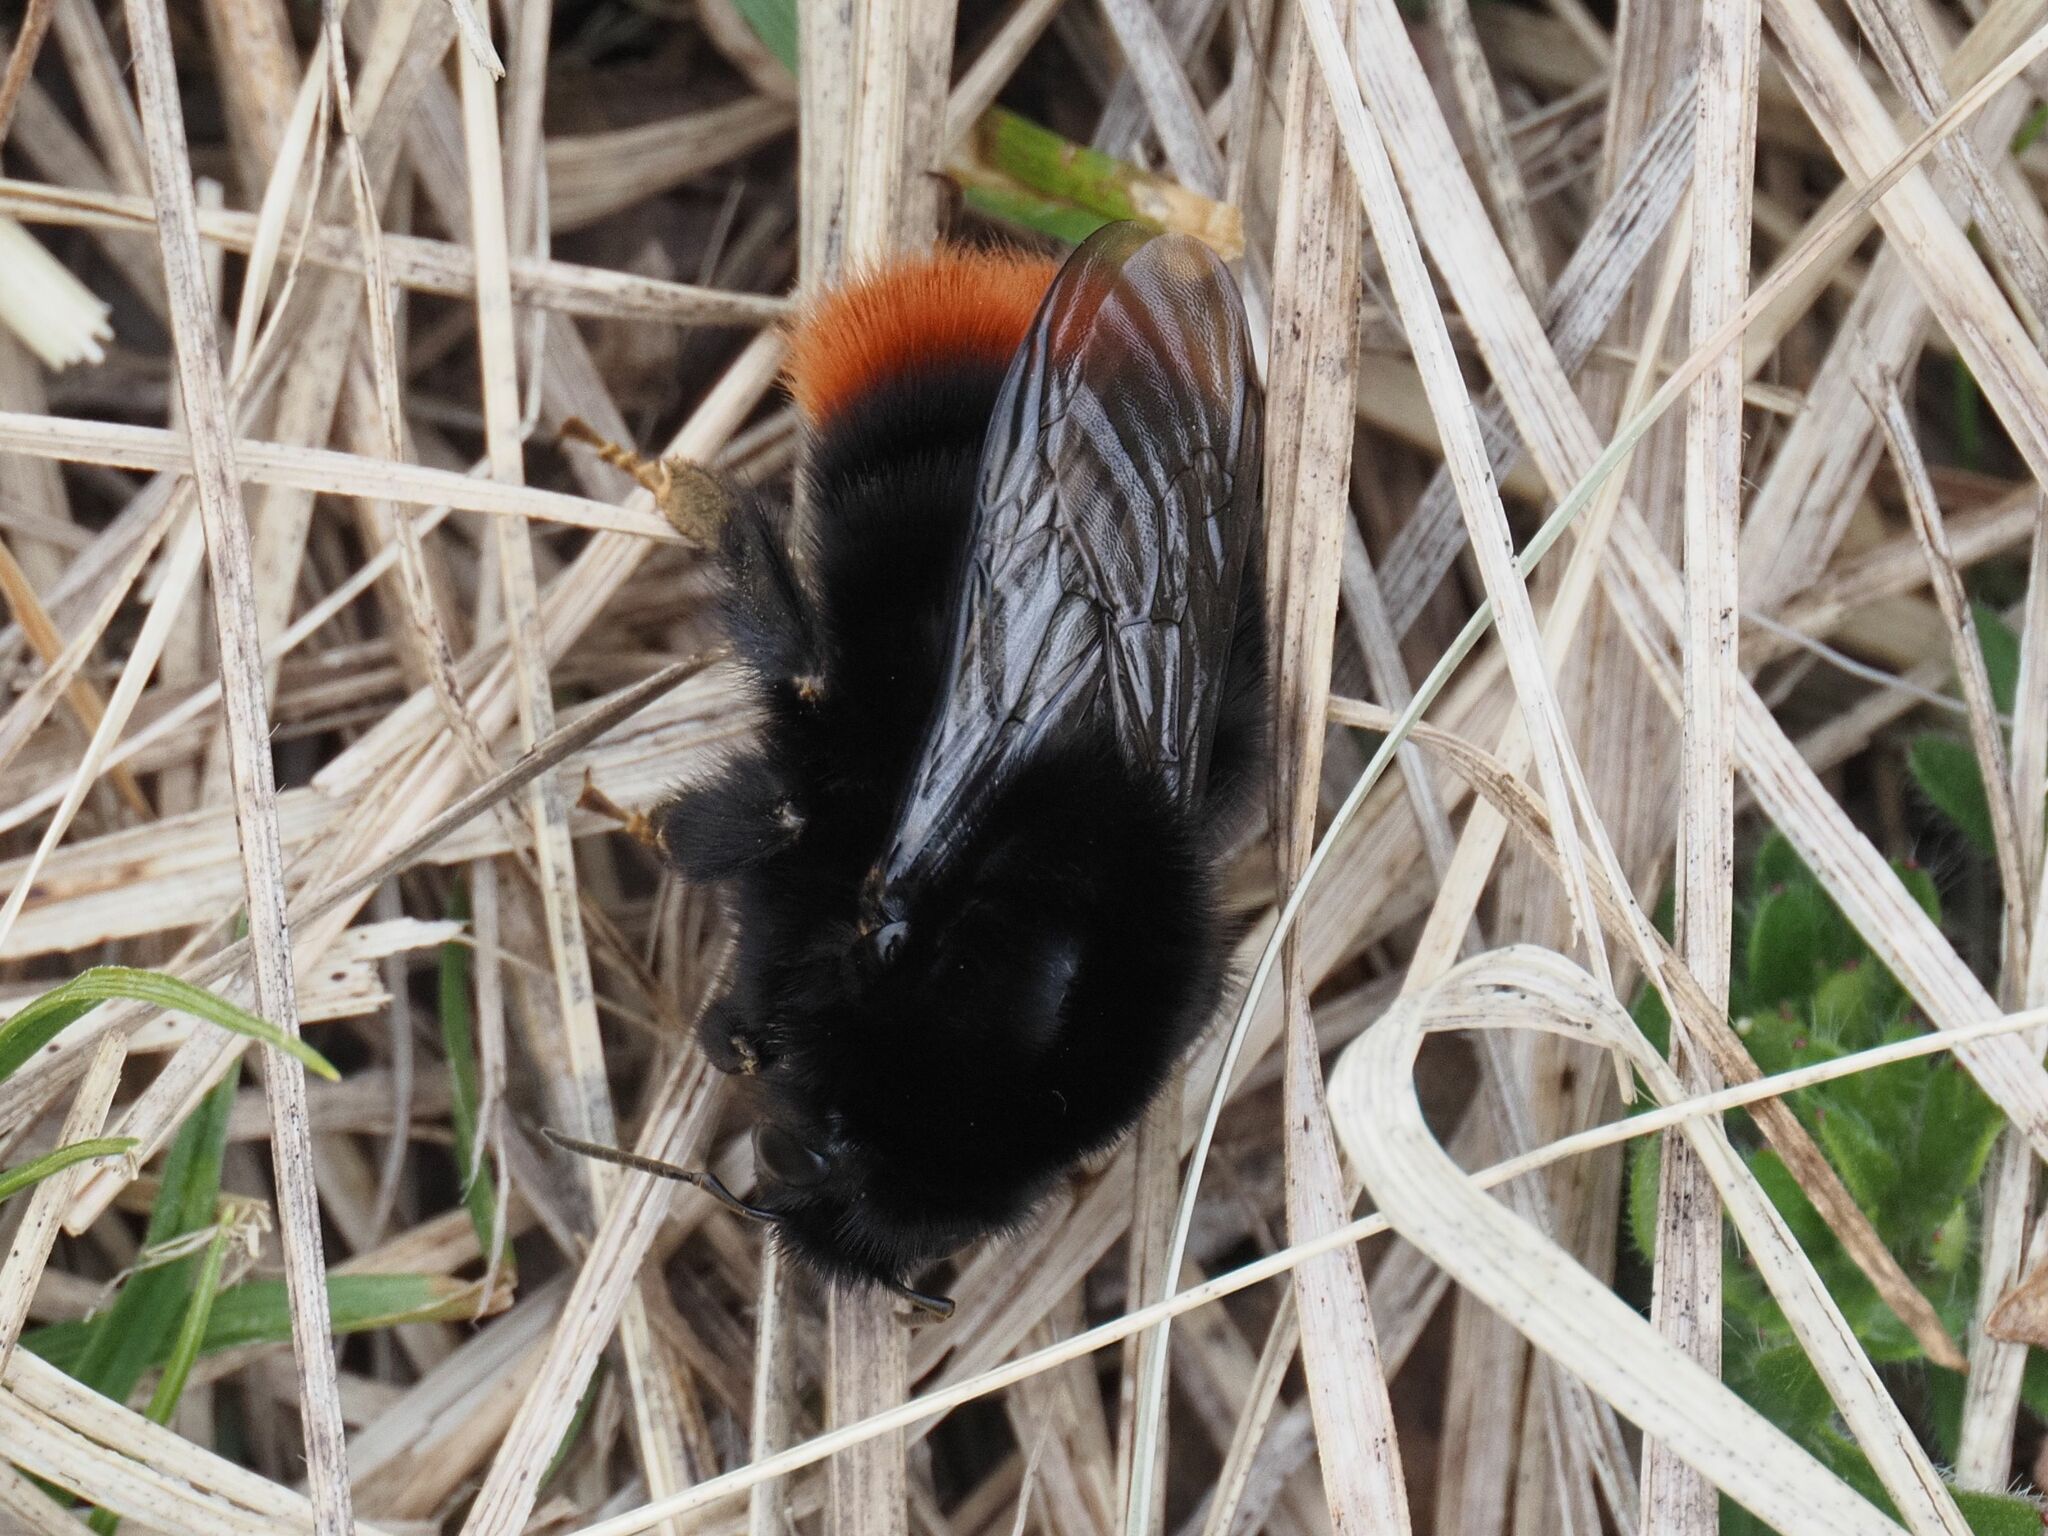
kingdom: Animalia
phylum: Arthropoda
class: Insecta
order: Hymenoptera
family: Apidae
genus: Bombus
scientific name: Bombus lapidarius
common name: Large red-tailed humble-bee
